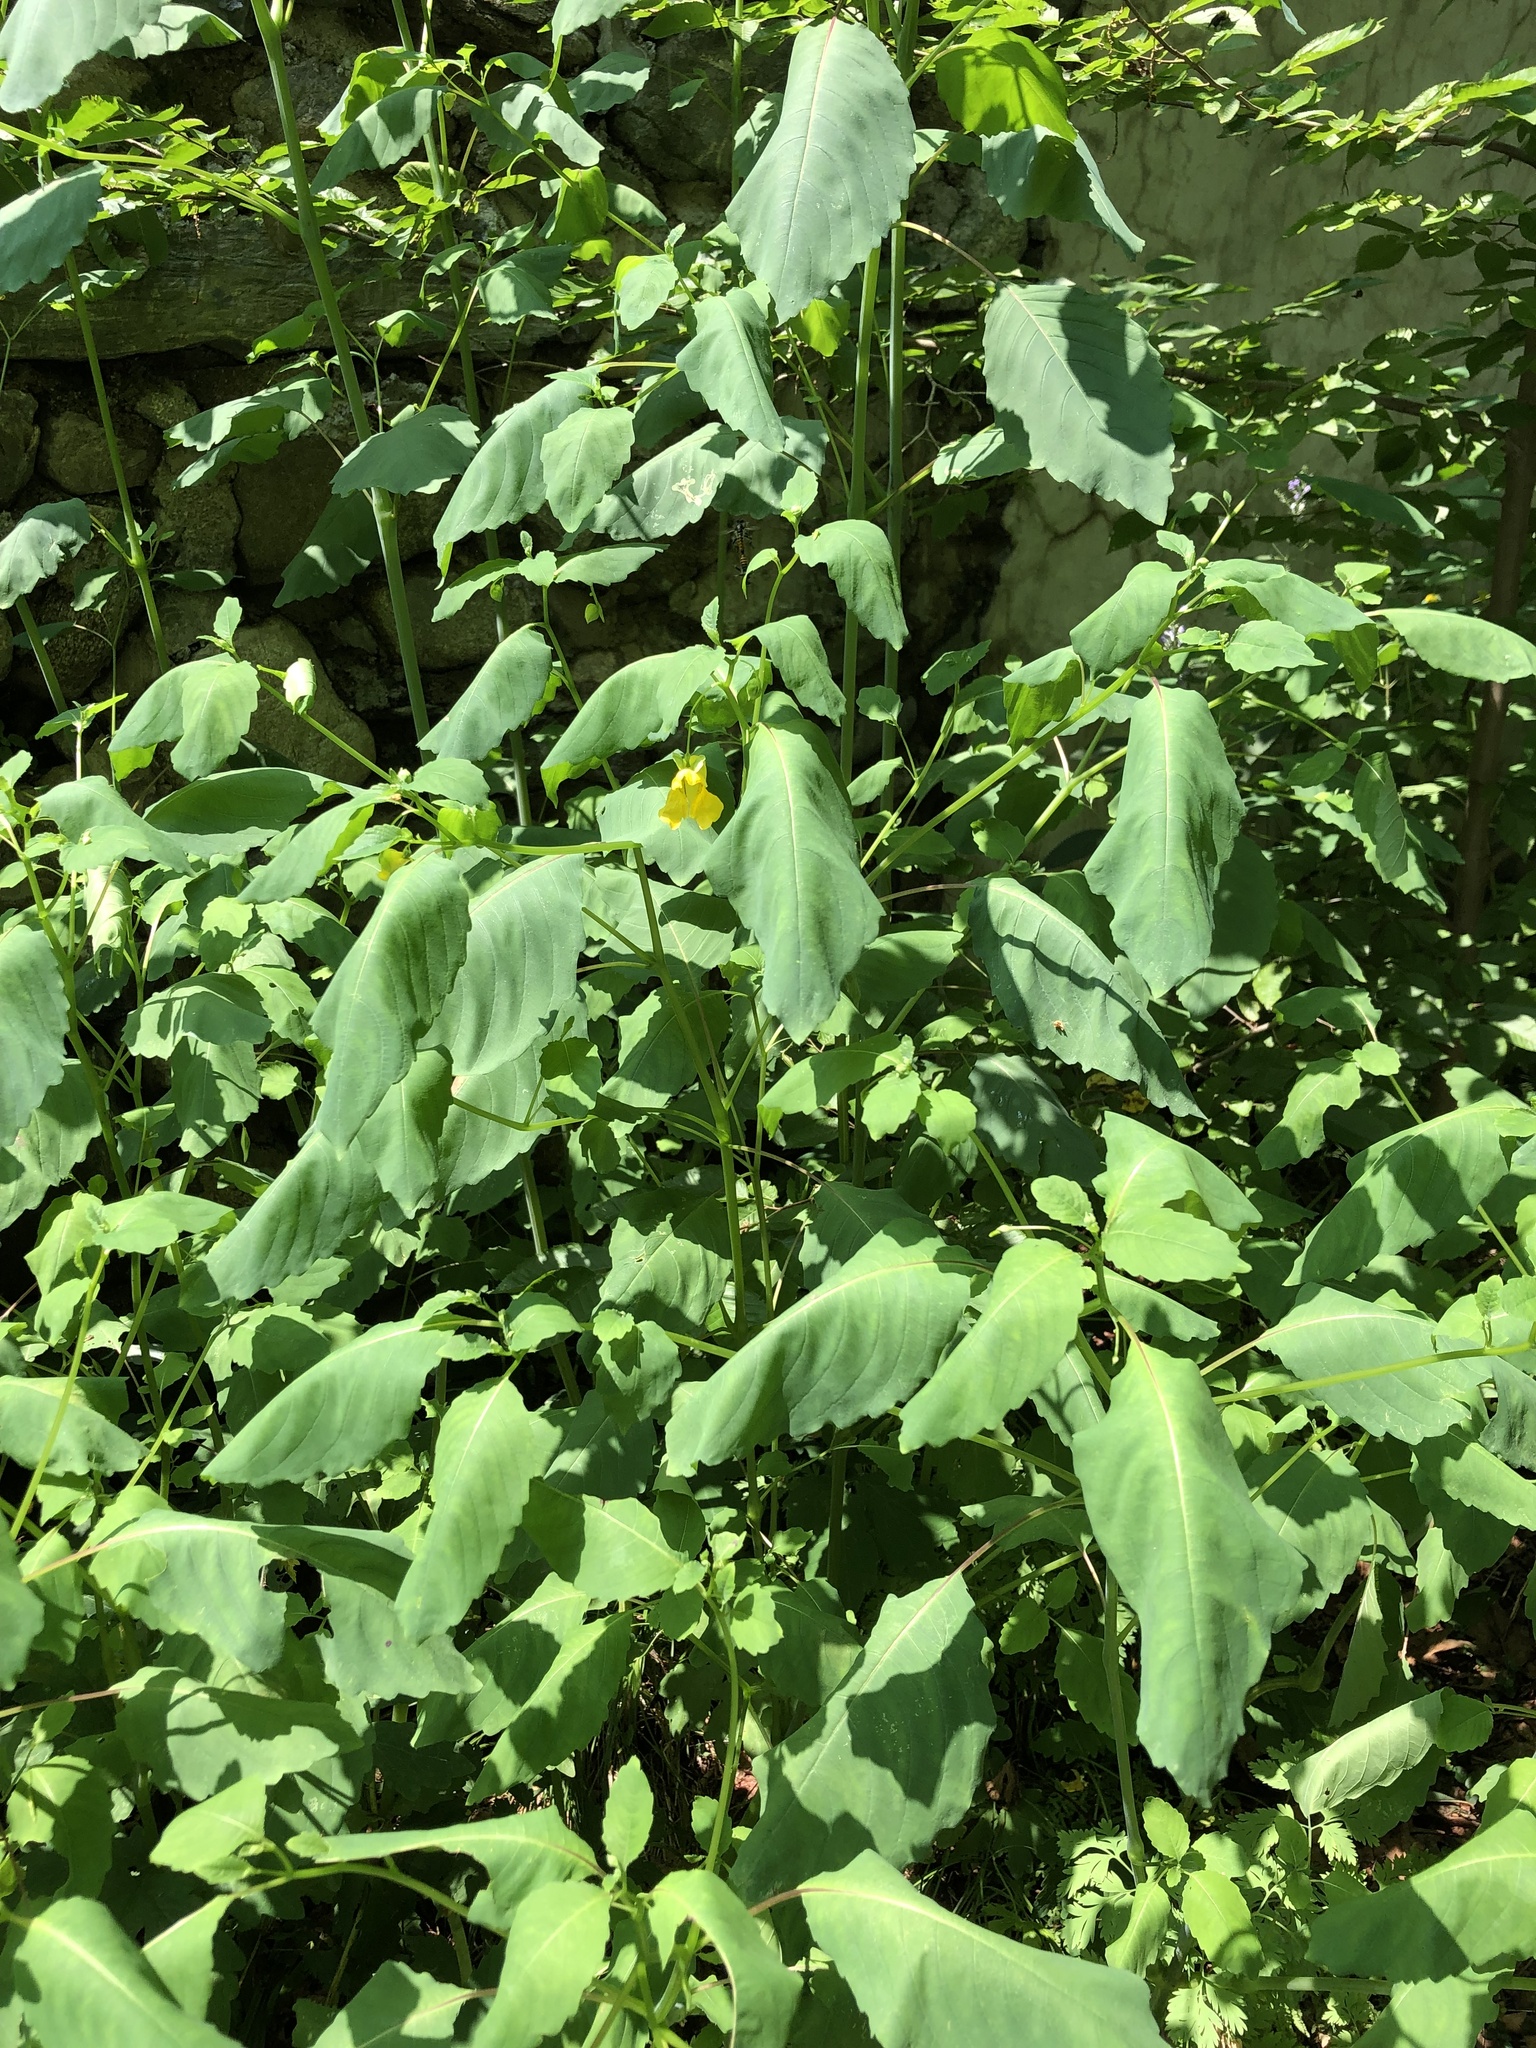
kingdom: Plantae
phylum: Tracheophyta
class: Magnoliopsida
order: Ericales
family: Balsaminaceae
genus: Impatiens
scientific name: Impatiens pallida
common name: Pale snapweed
